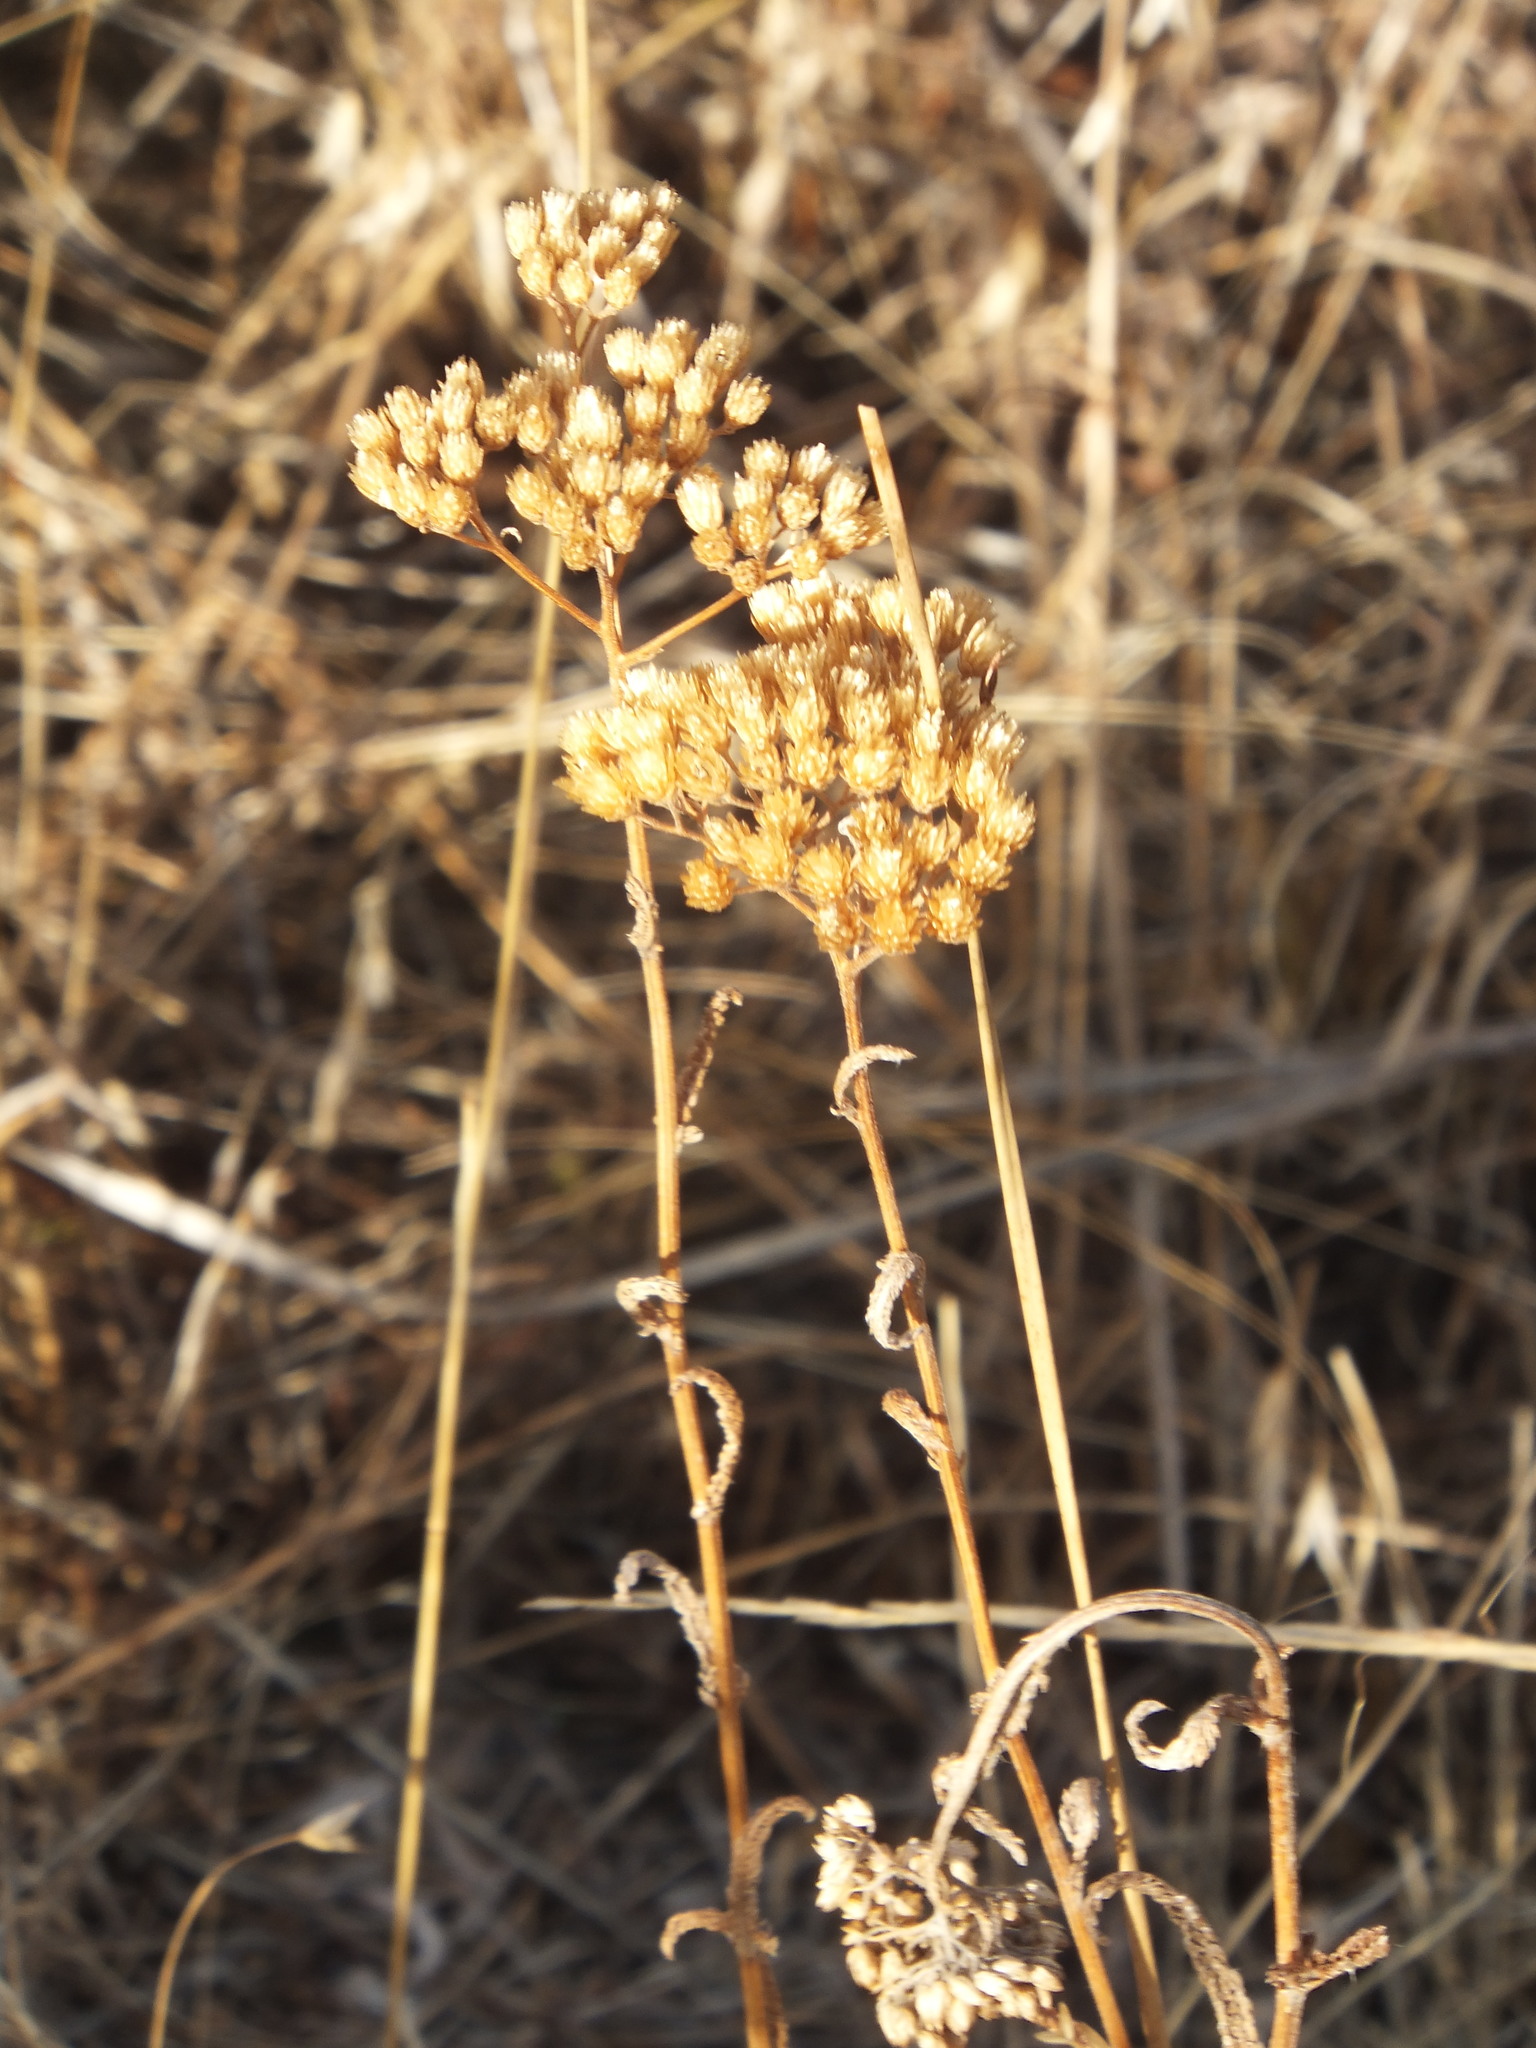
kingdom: Plantae
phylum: Tracheophyta
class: Magnoliopsida
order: Asterales
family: Asteraceae
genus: Achillea
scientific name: Achillea millefolium
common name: Yarrow
